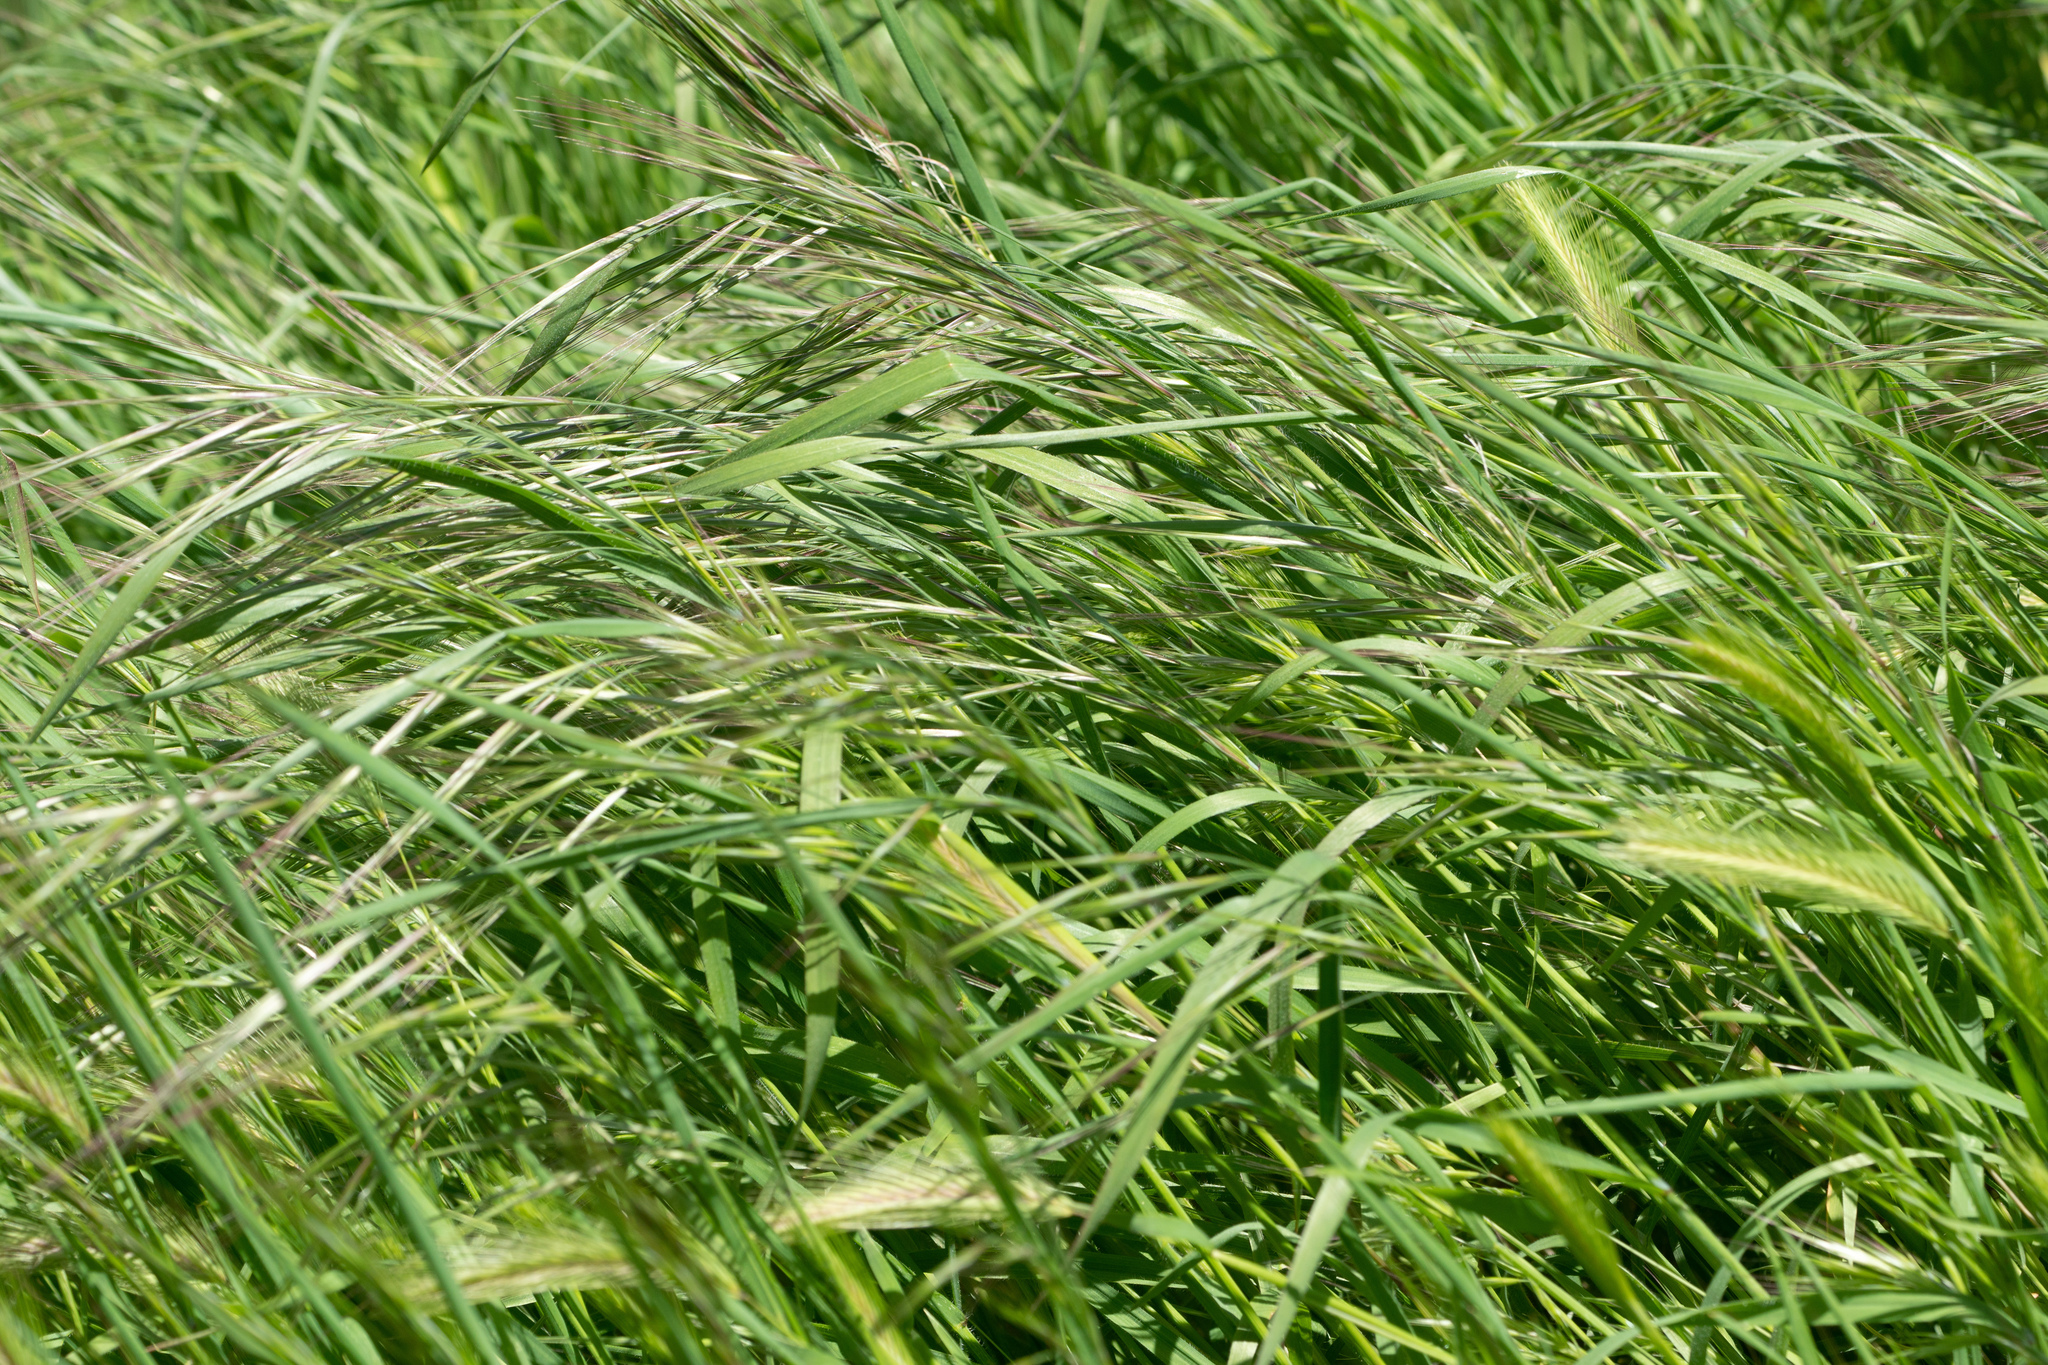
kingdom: Plantae
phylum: Tracheophyta
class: Liliopsida
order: Poales
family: Poaceae
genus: Bromus
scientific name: Bromus diandrus
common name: Ripgut brome
